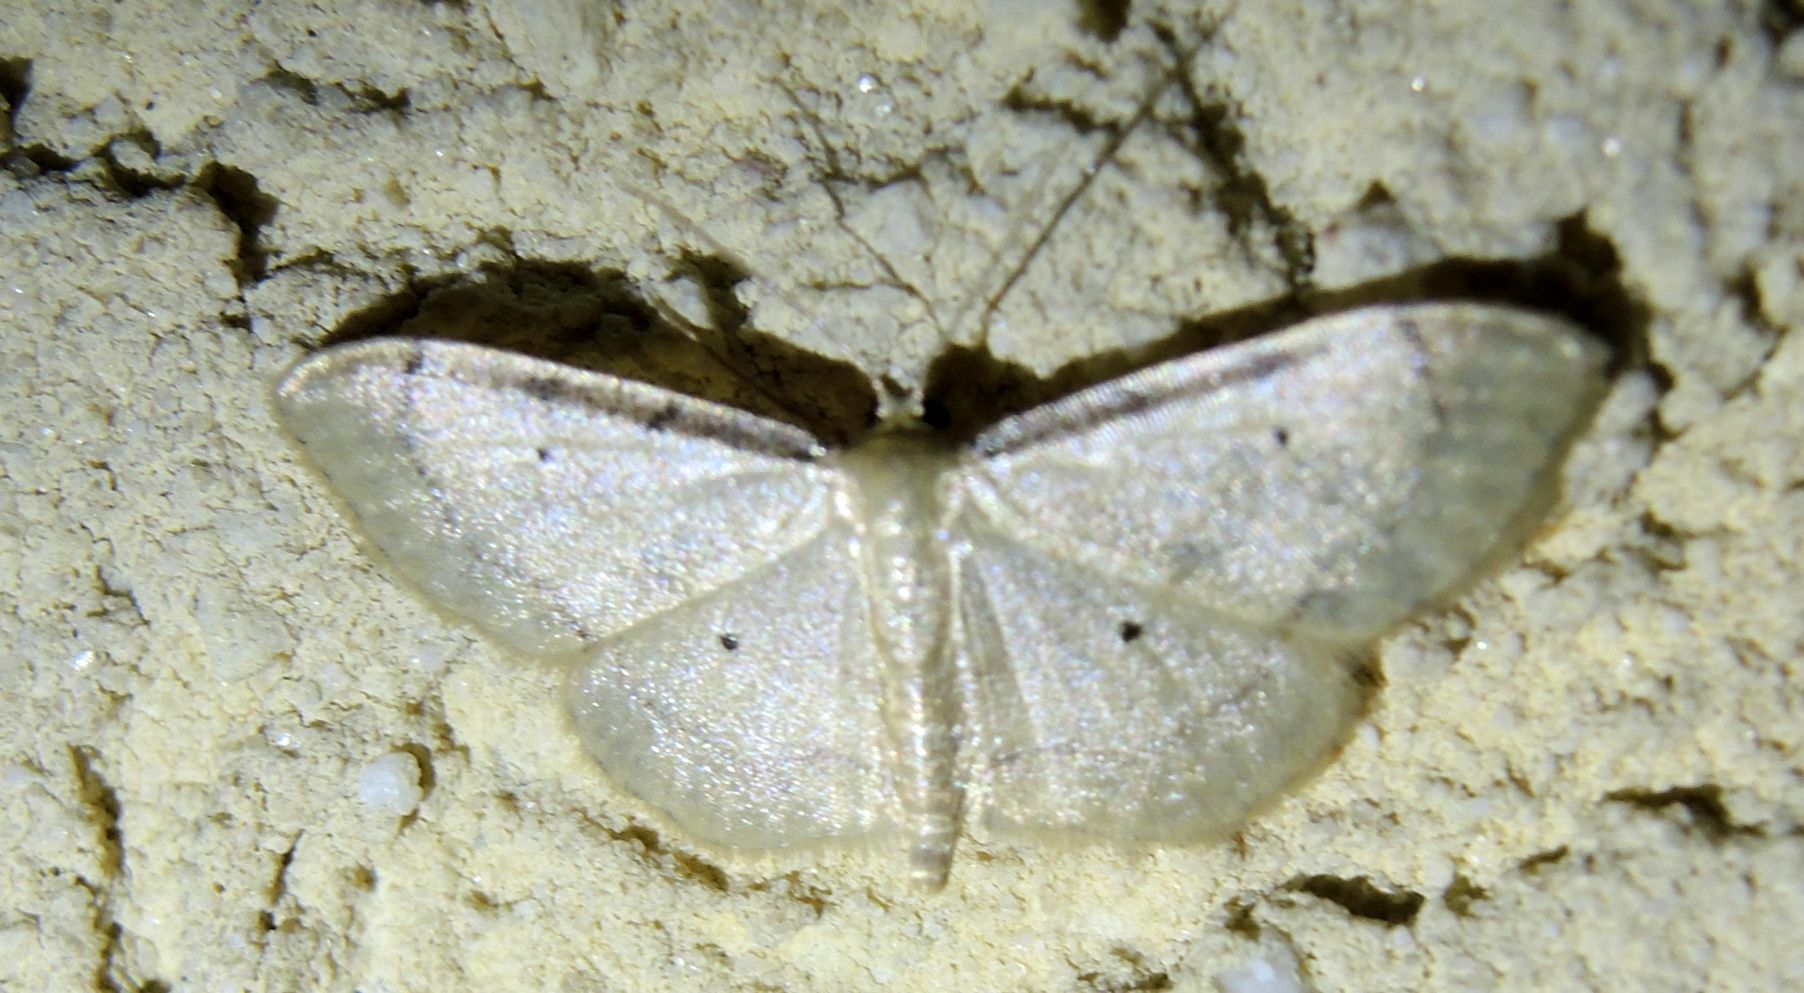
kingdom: Animalia
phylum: Arthropoda
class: Insecta
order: Lepidoptera
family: Geometridae
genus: Idaea
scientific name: Idaea politaria
